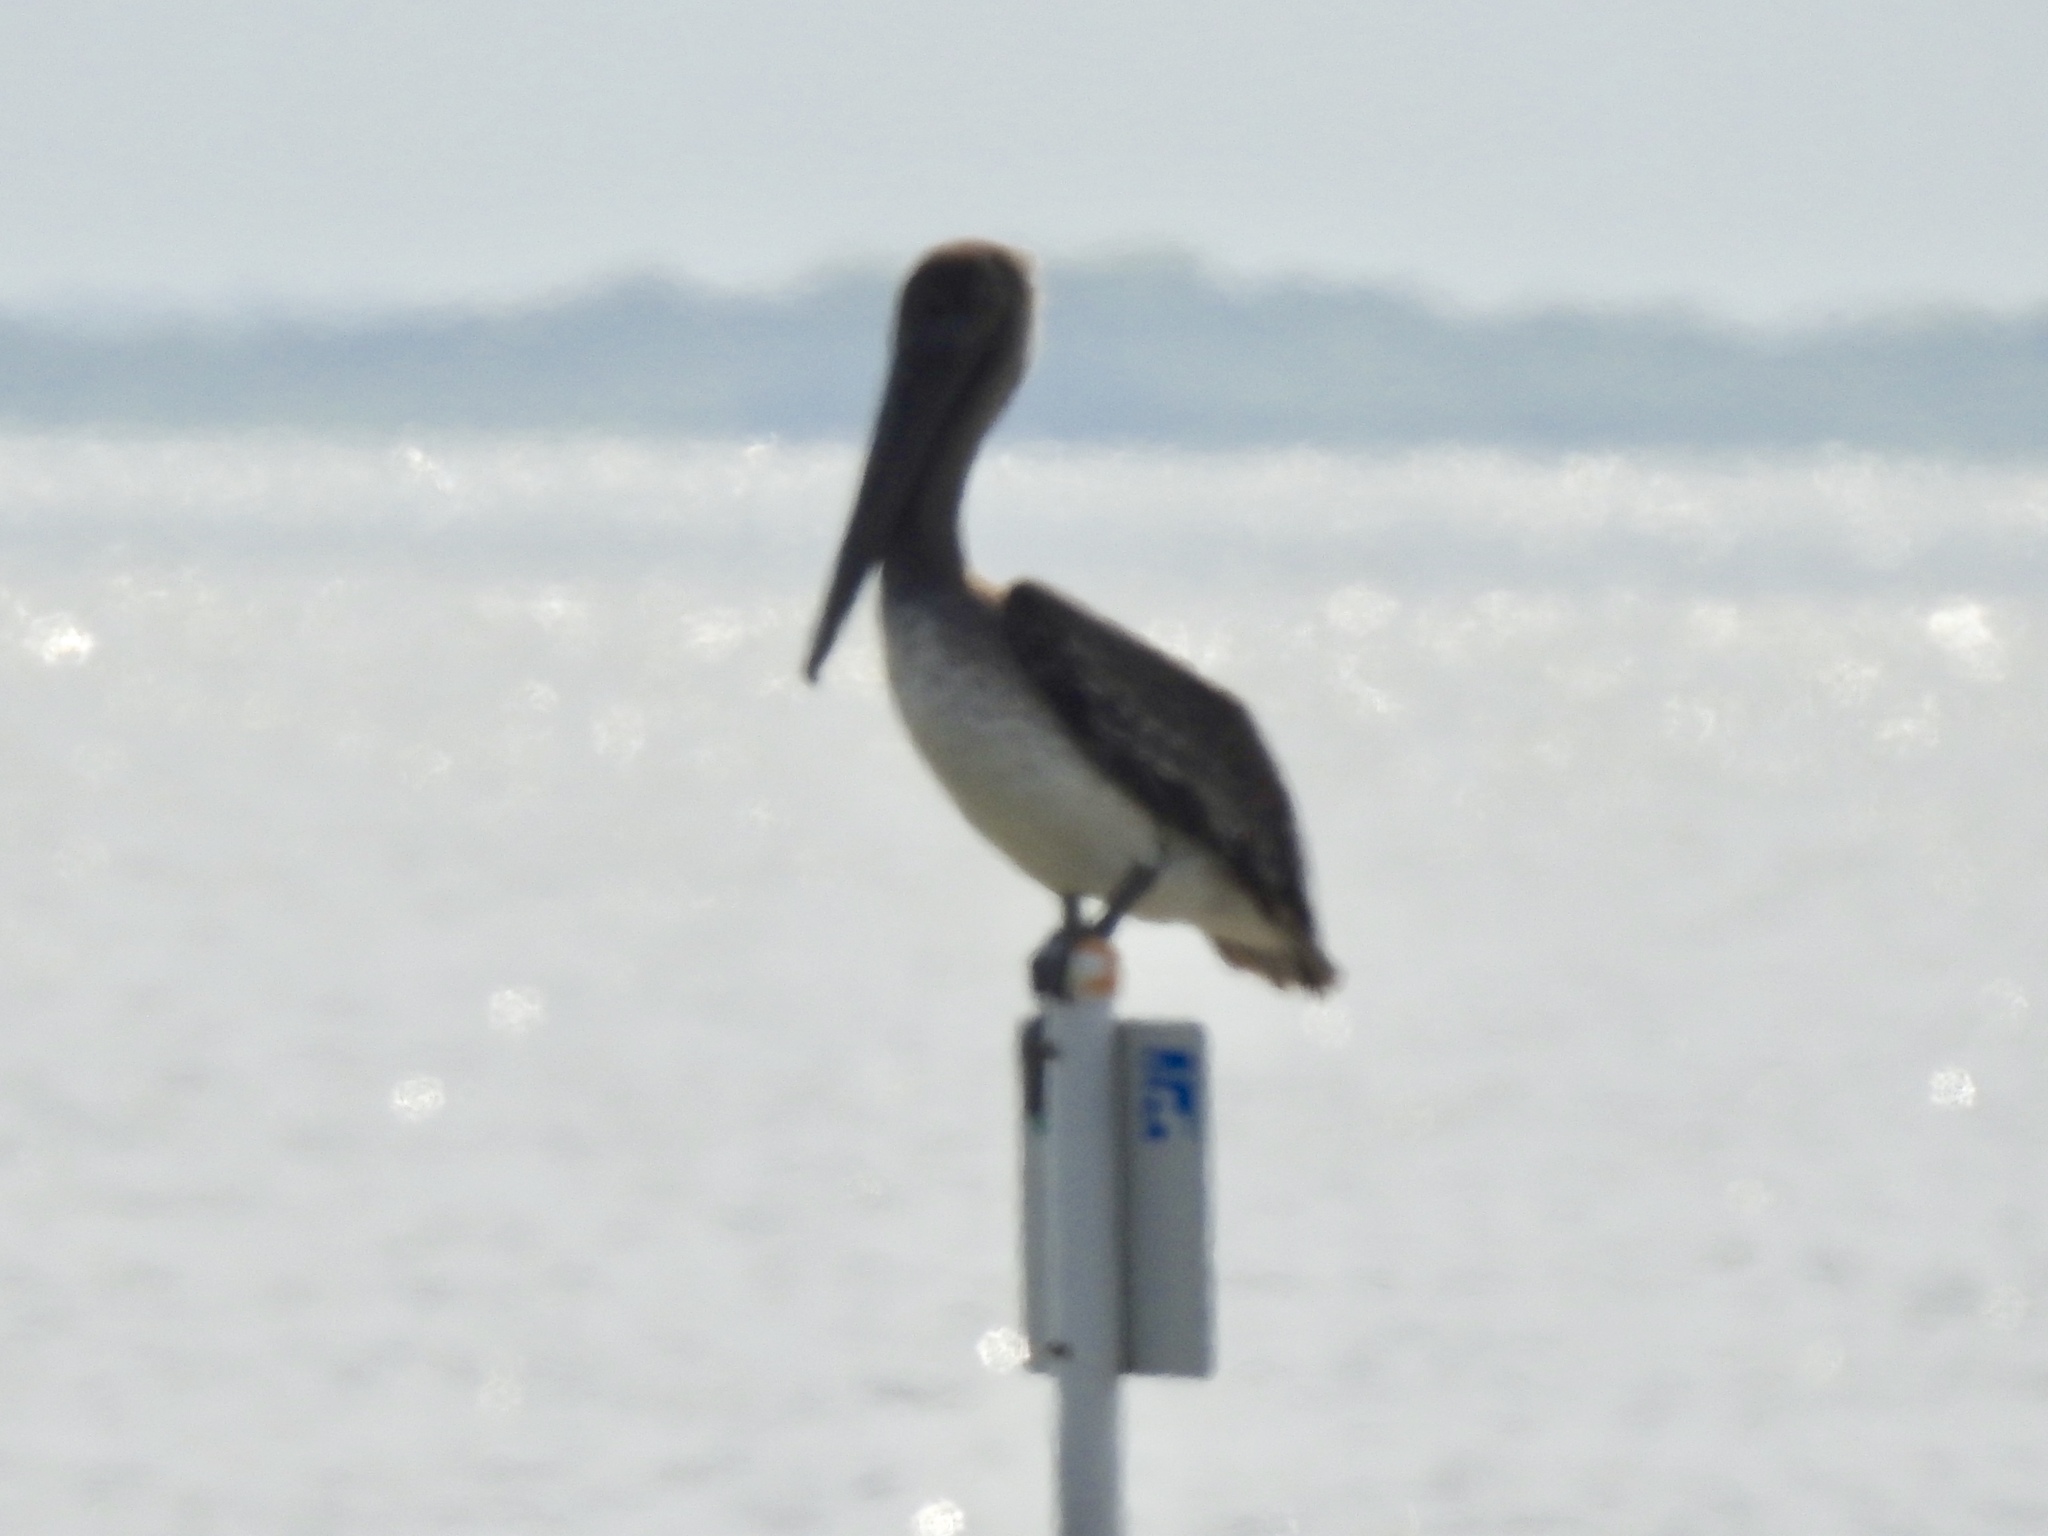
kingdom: Animalia
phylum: Chordata
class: Aves
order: Pelecaniformes
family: Pelecanidae
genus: Pelecanus
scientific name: Pelecanus occidentalis
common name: Brown pelican
